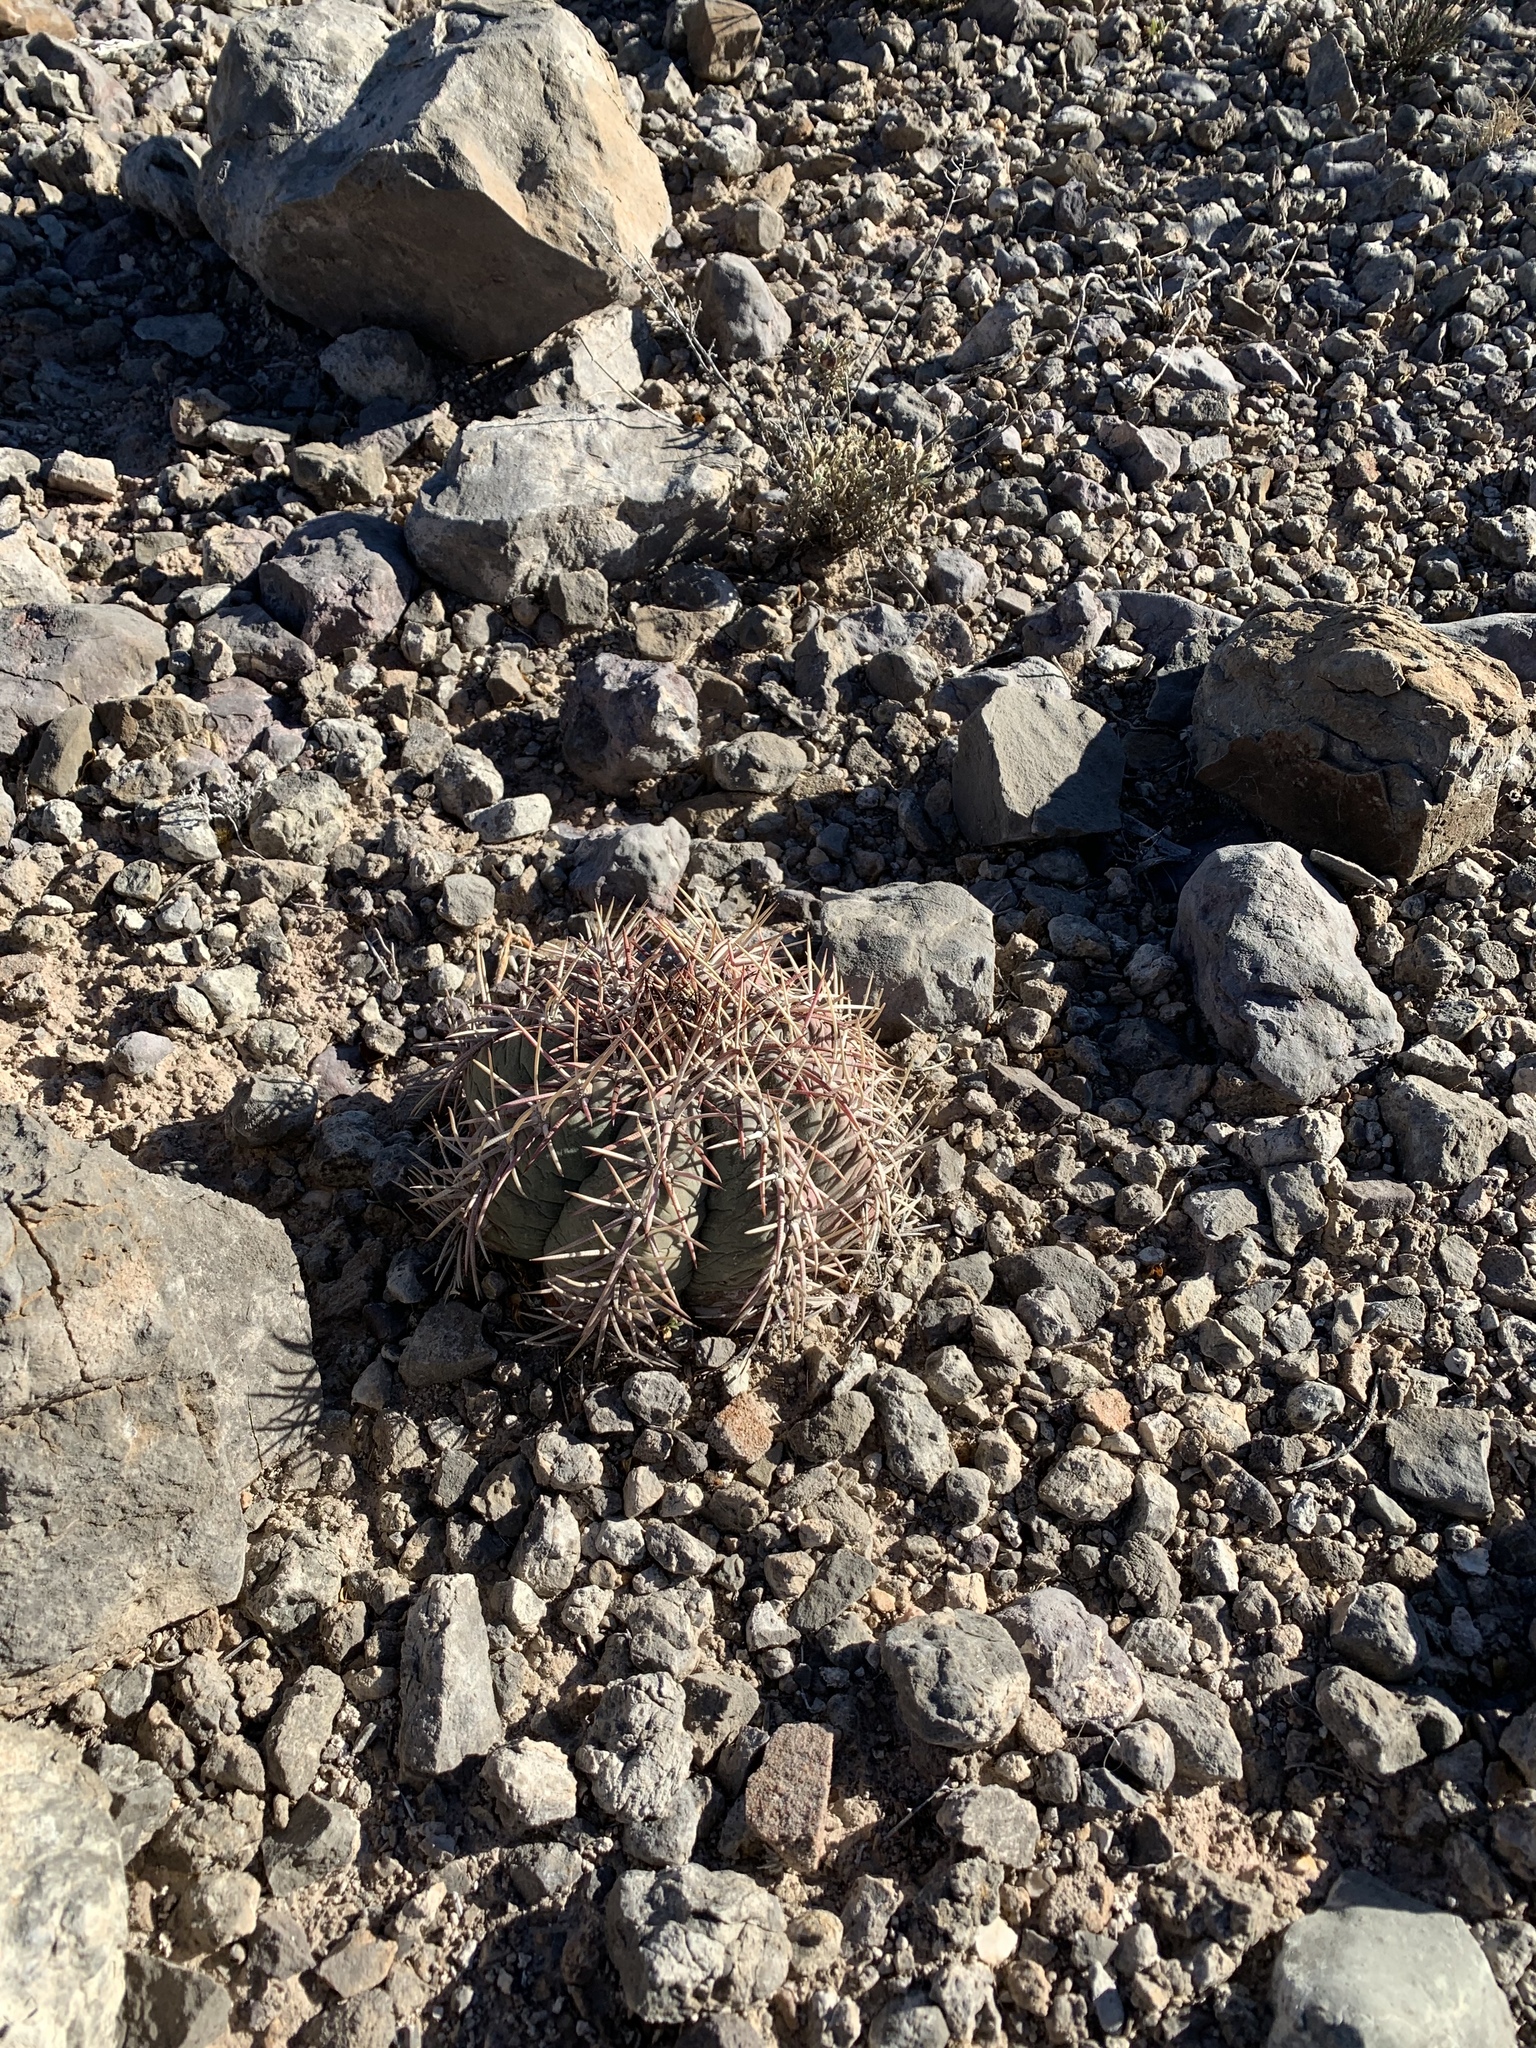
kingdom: Plantae
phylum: Tracheophyta
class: Magnoliopsida
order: Caryophyllales
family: Cactaceae
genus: Echinocactus
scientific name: Echinocactus horizonthalonius
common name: Devilshead
